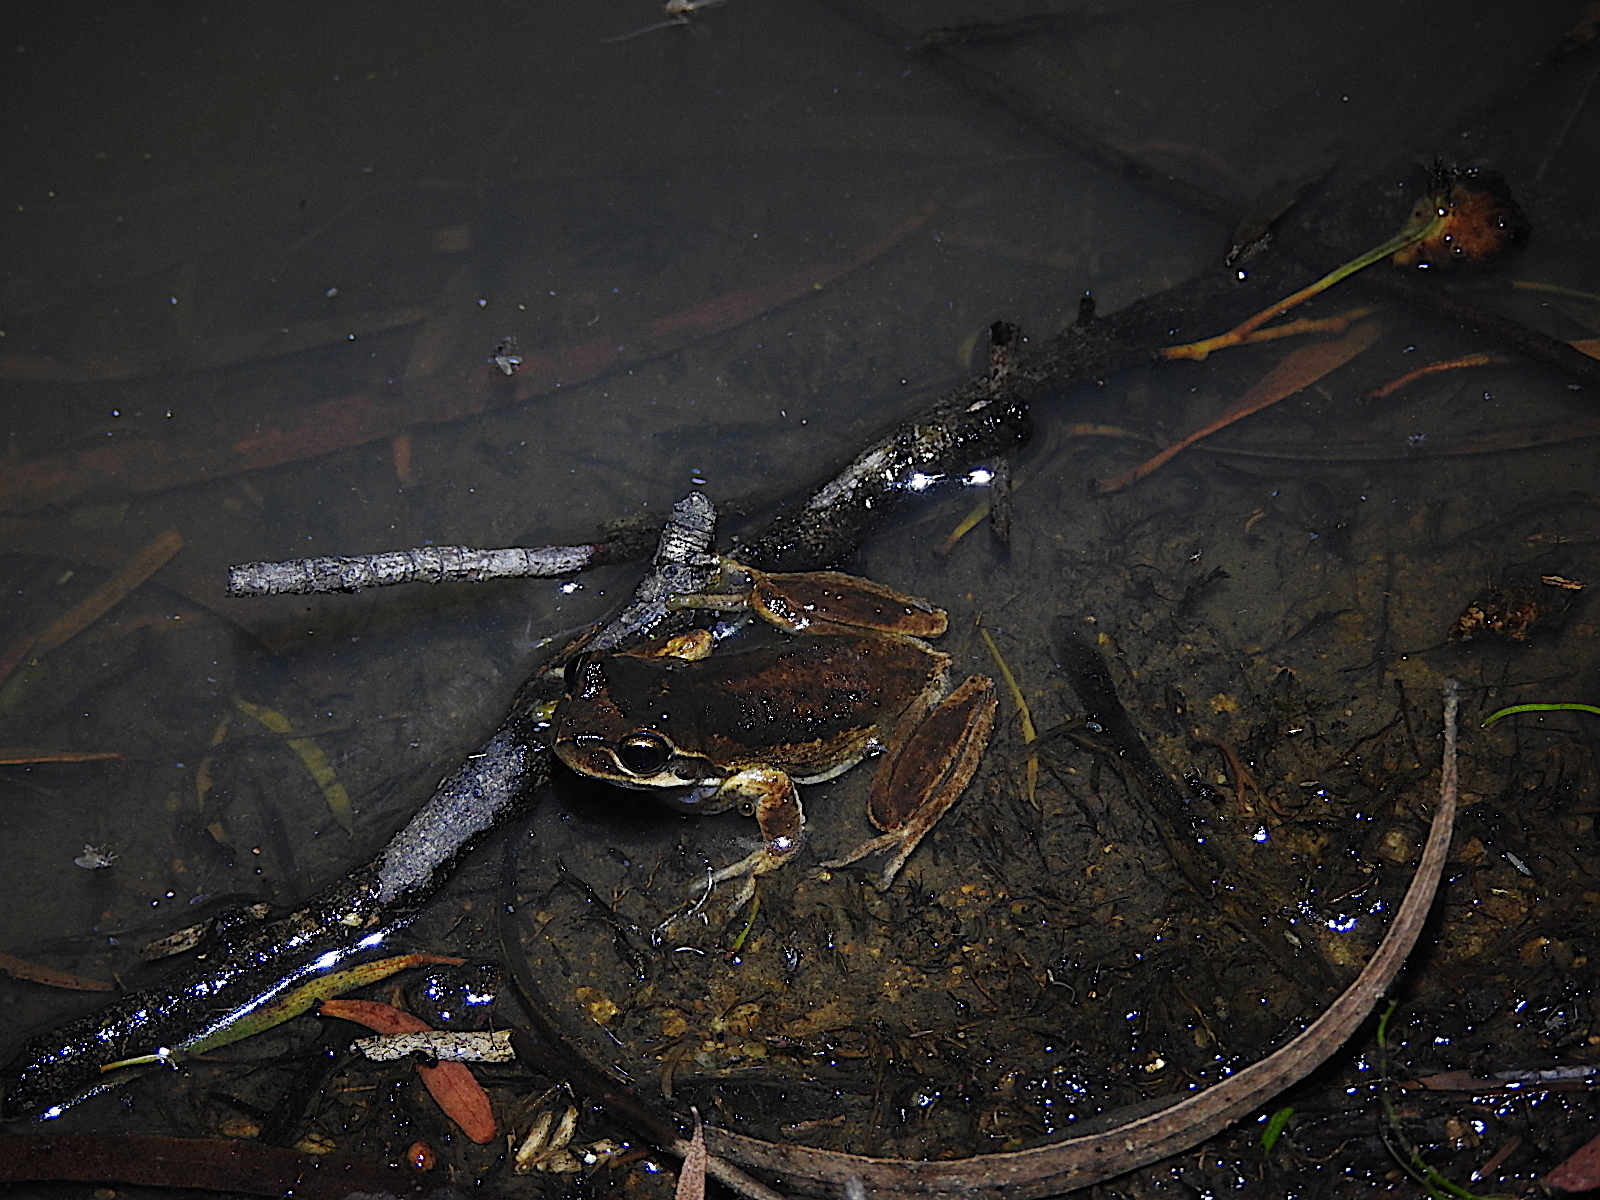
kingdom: Animalia
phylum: Chordata
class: Amphibia
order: Anura
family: Pelodryadidae
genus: Litoria
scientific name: Litoria ewingii
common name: Southern brown tree frog
